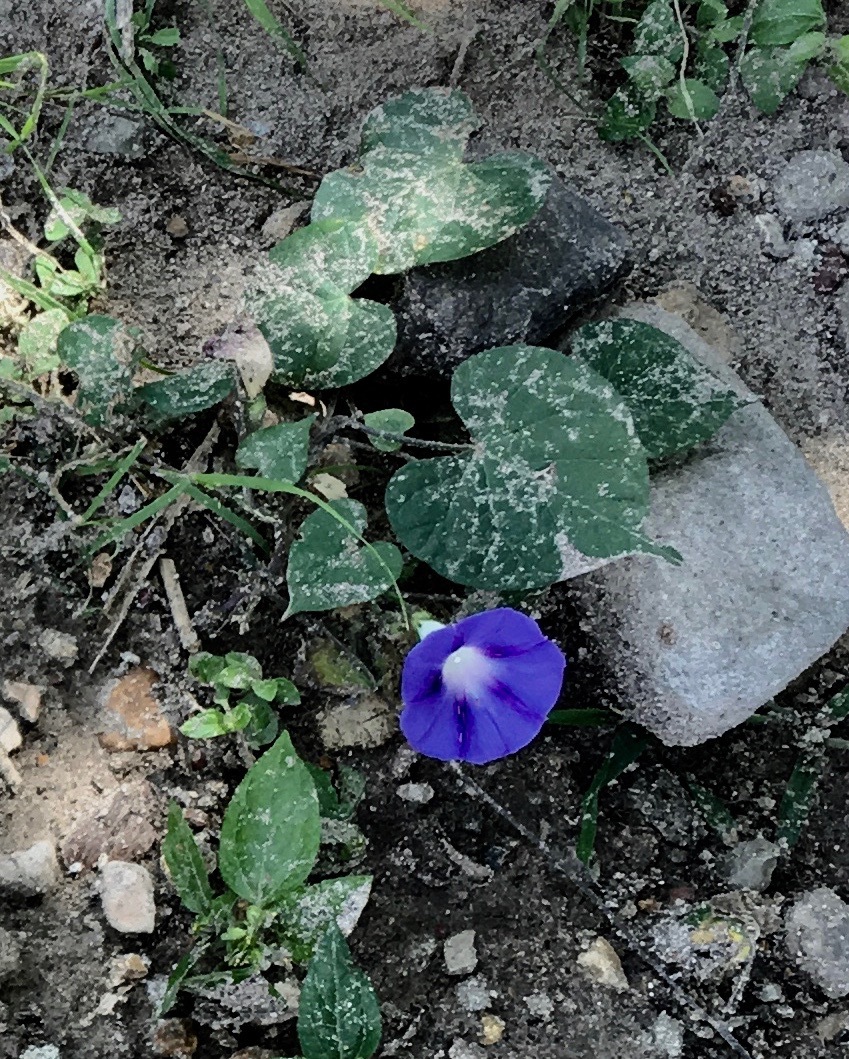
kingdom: Plantae
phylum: Tracheophyta
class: Magnoliopsida
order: Solanales
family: Convolvulaceae
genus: Ipomoea
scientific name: Ipomoea purpurea
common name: Common morning-glory
